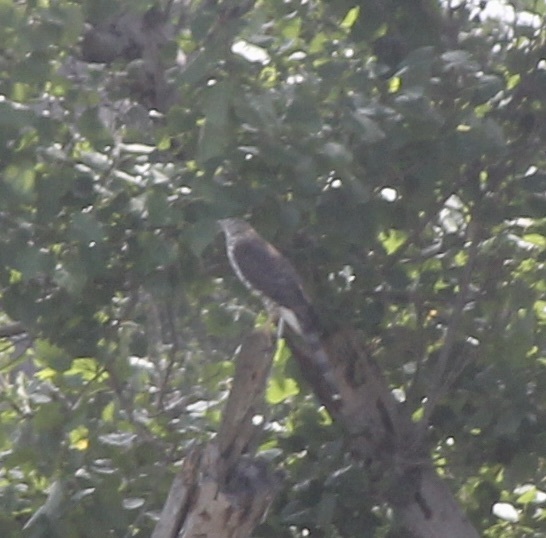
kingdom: Animalia
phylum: Chordata
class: Aves
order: Accipitriformes
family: Accipitridae
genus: Accipiter
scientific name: Accipiter cooperii
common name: Cooper's hawk
